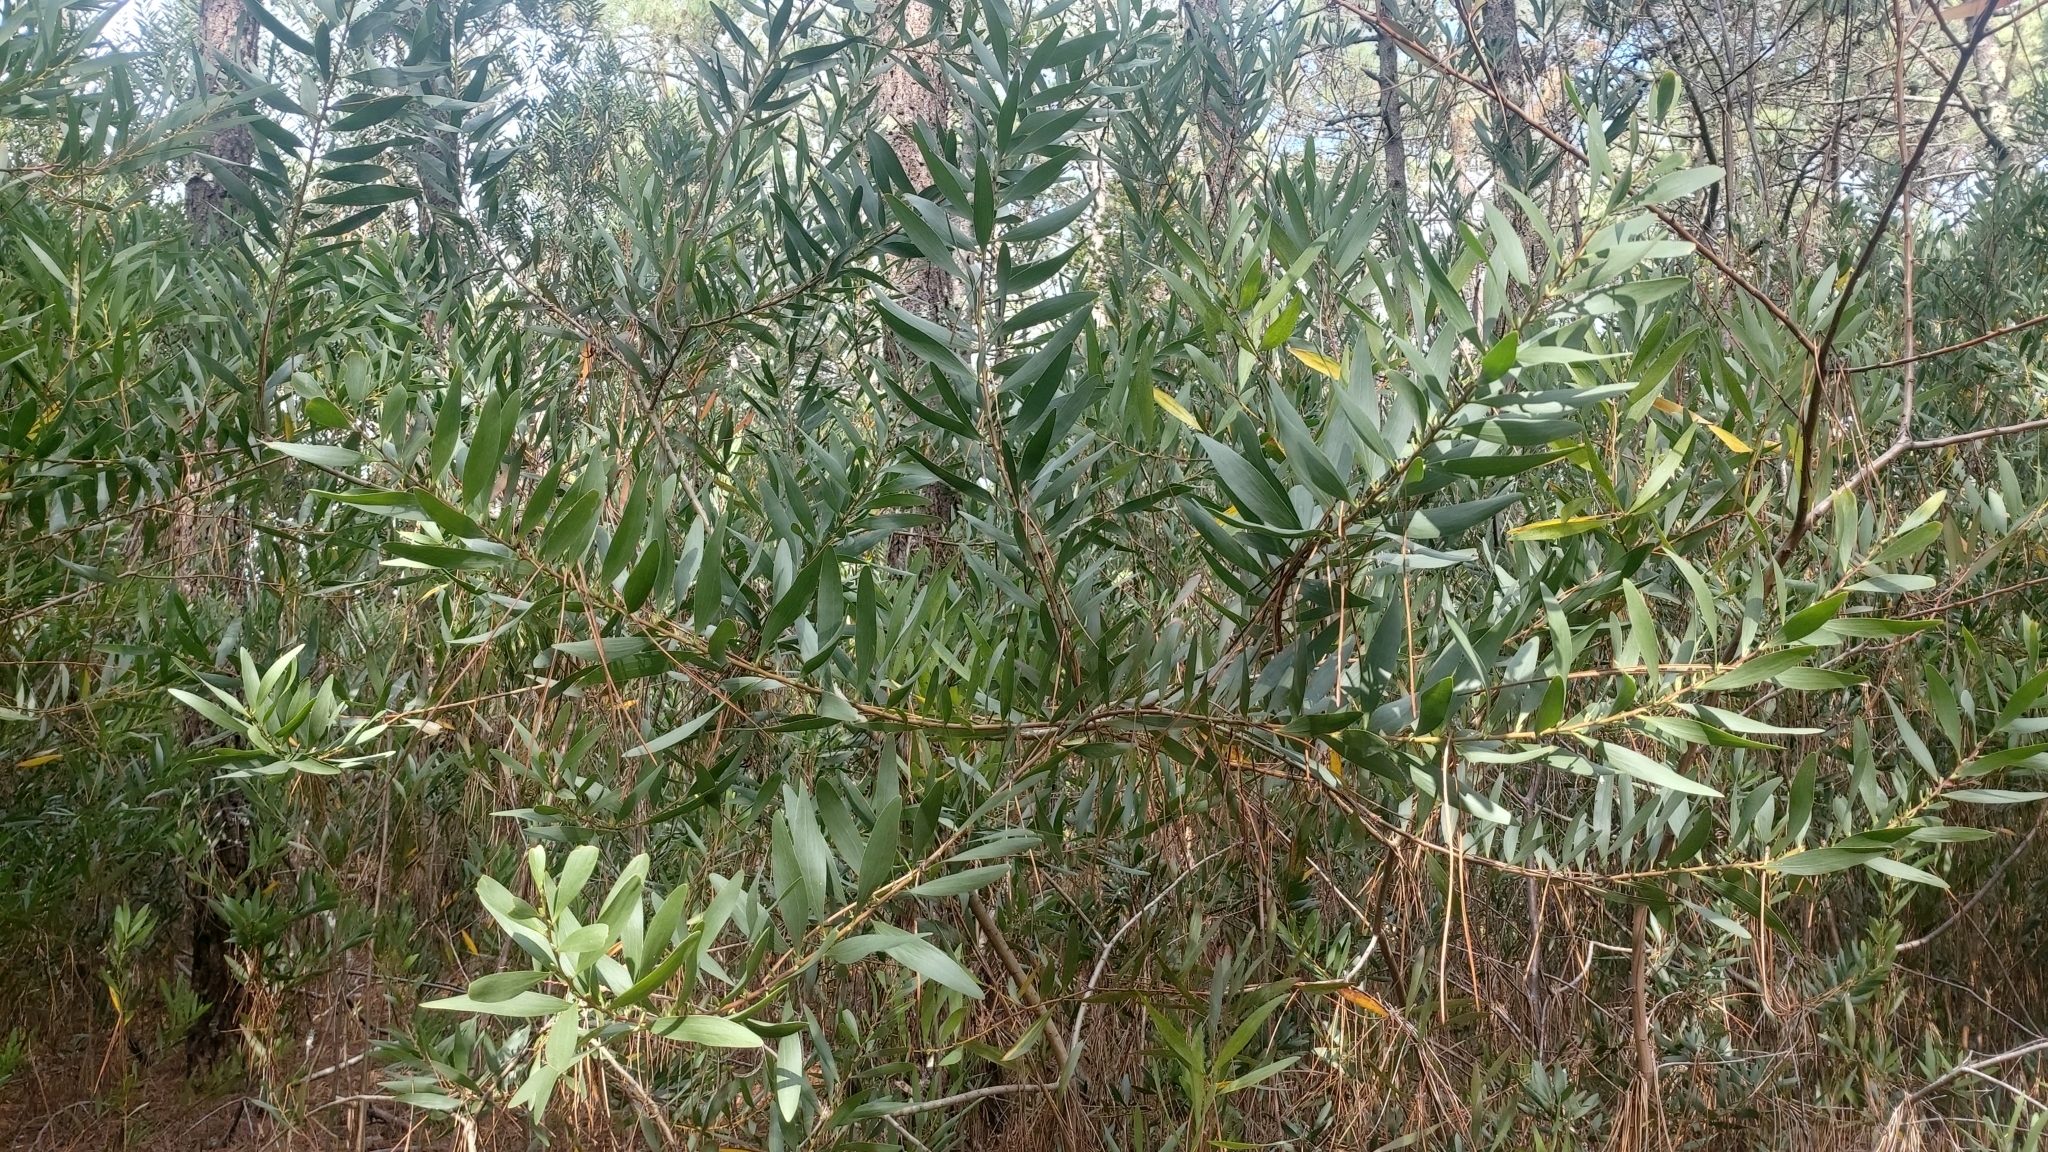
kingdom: Plantae
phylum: Tracheophyta
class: Magnoliopsida
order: Fabales
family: Fabaceae
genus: Acacia
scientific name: Acacia longifolia
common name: Sydney golden wattle
